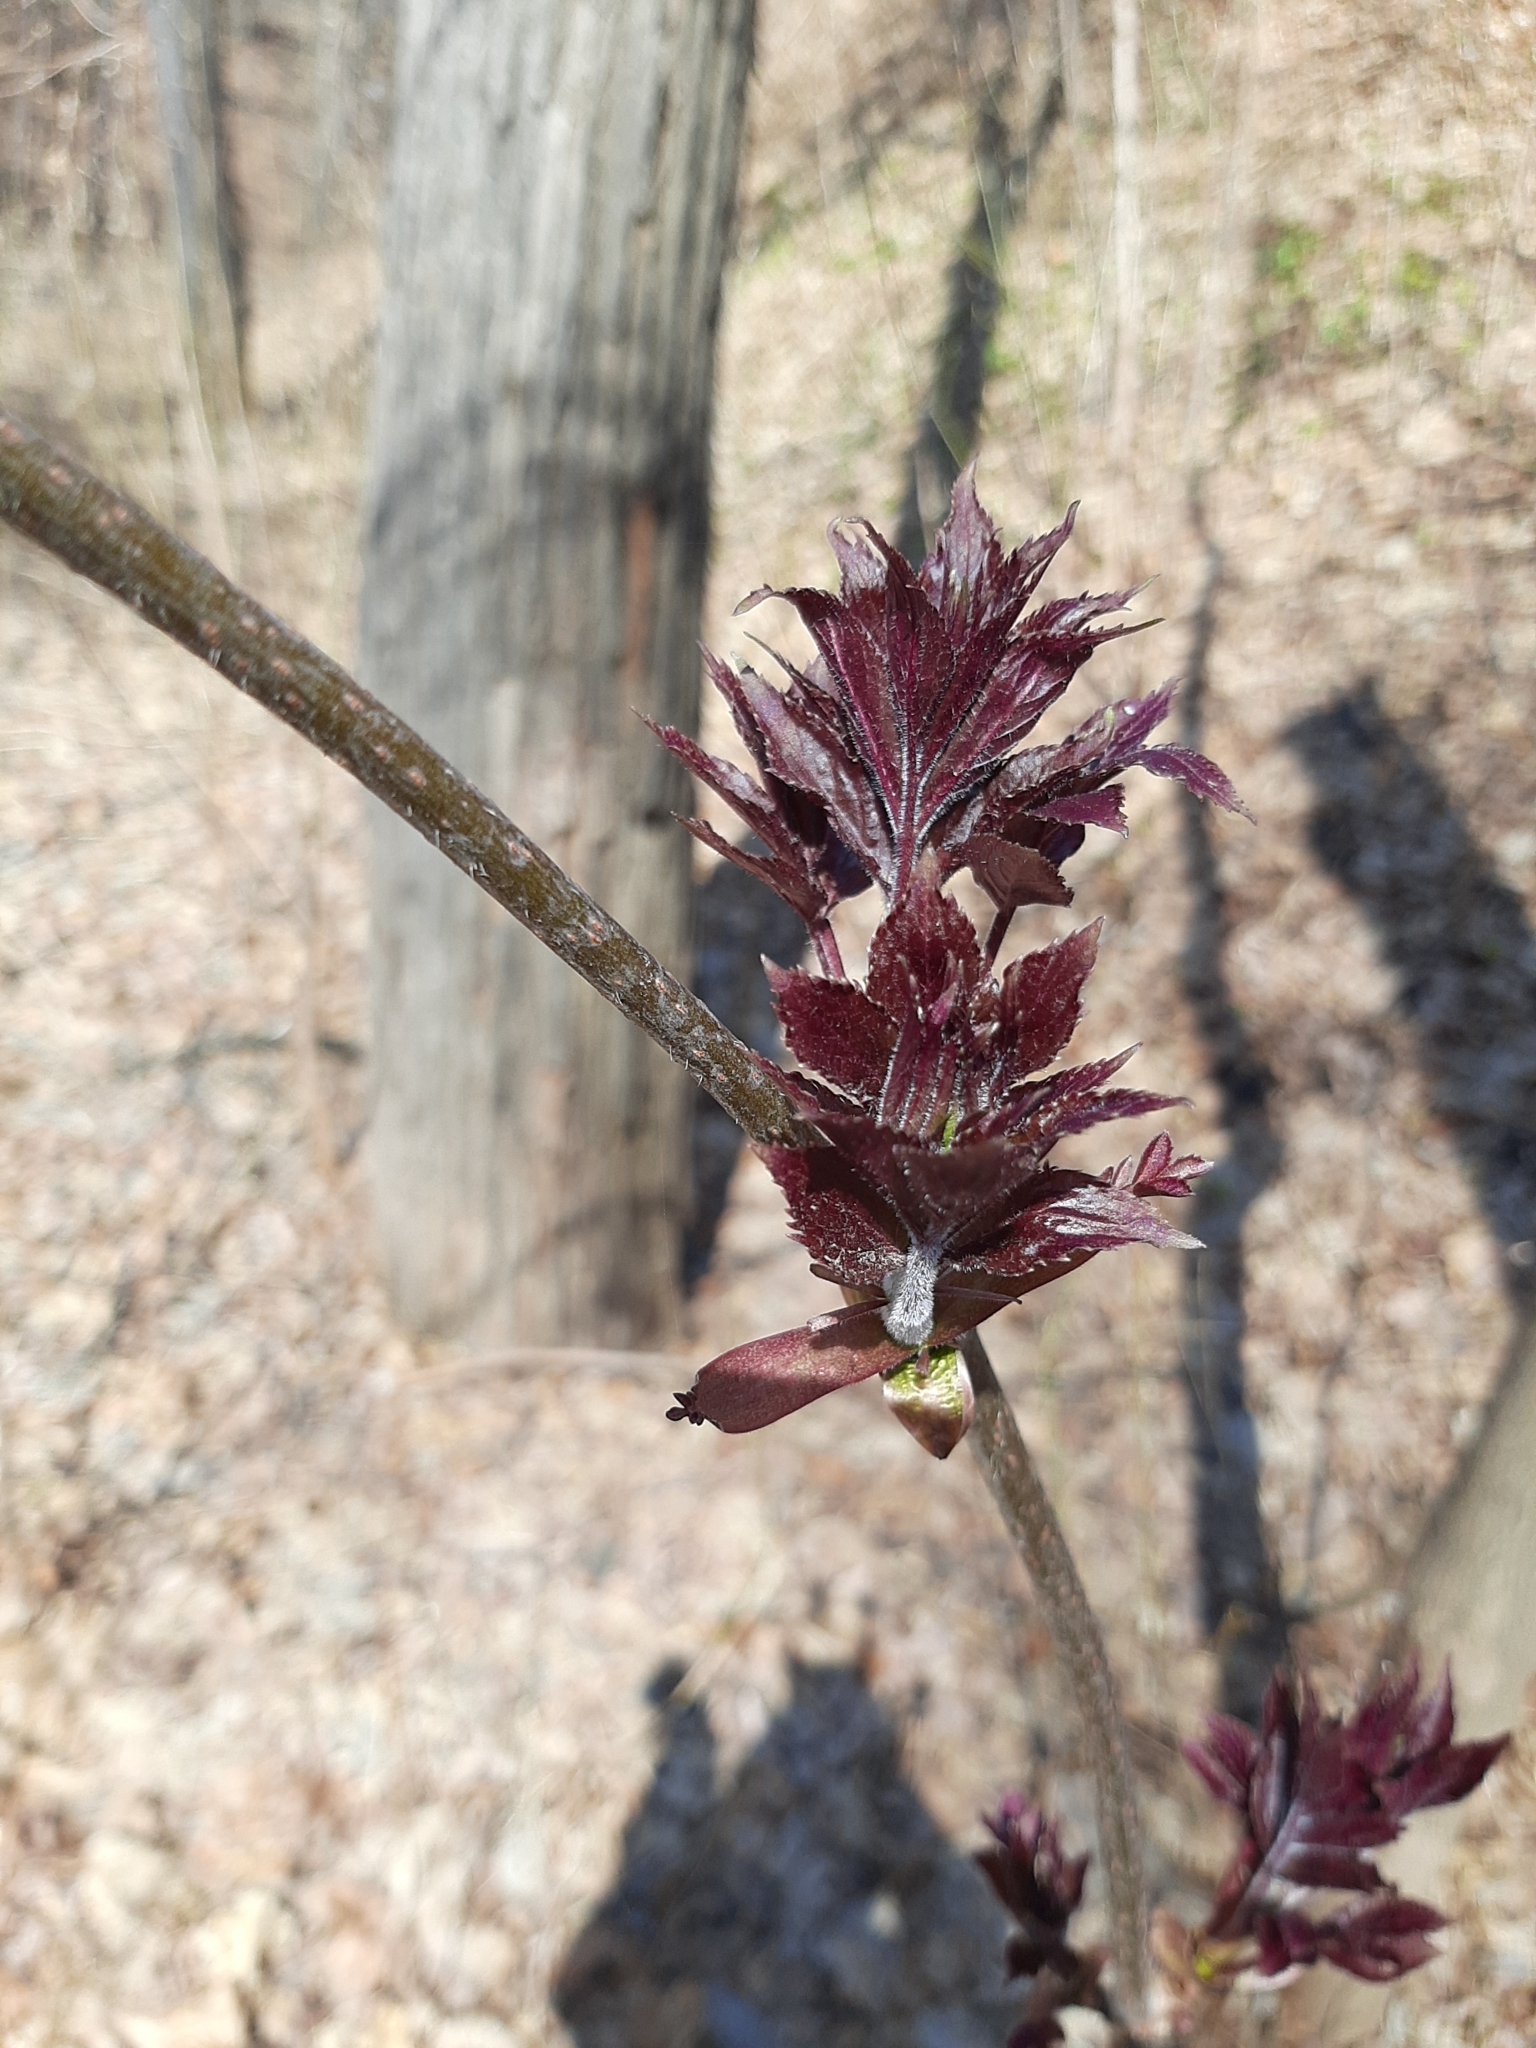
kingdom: Plantae
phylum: Tracheophyta
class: Magnoliopsida
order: Dipsacales
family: Viburnaceae
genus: Sambucus
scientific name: Sambucus racemosa
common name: Red-berried elder
